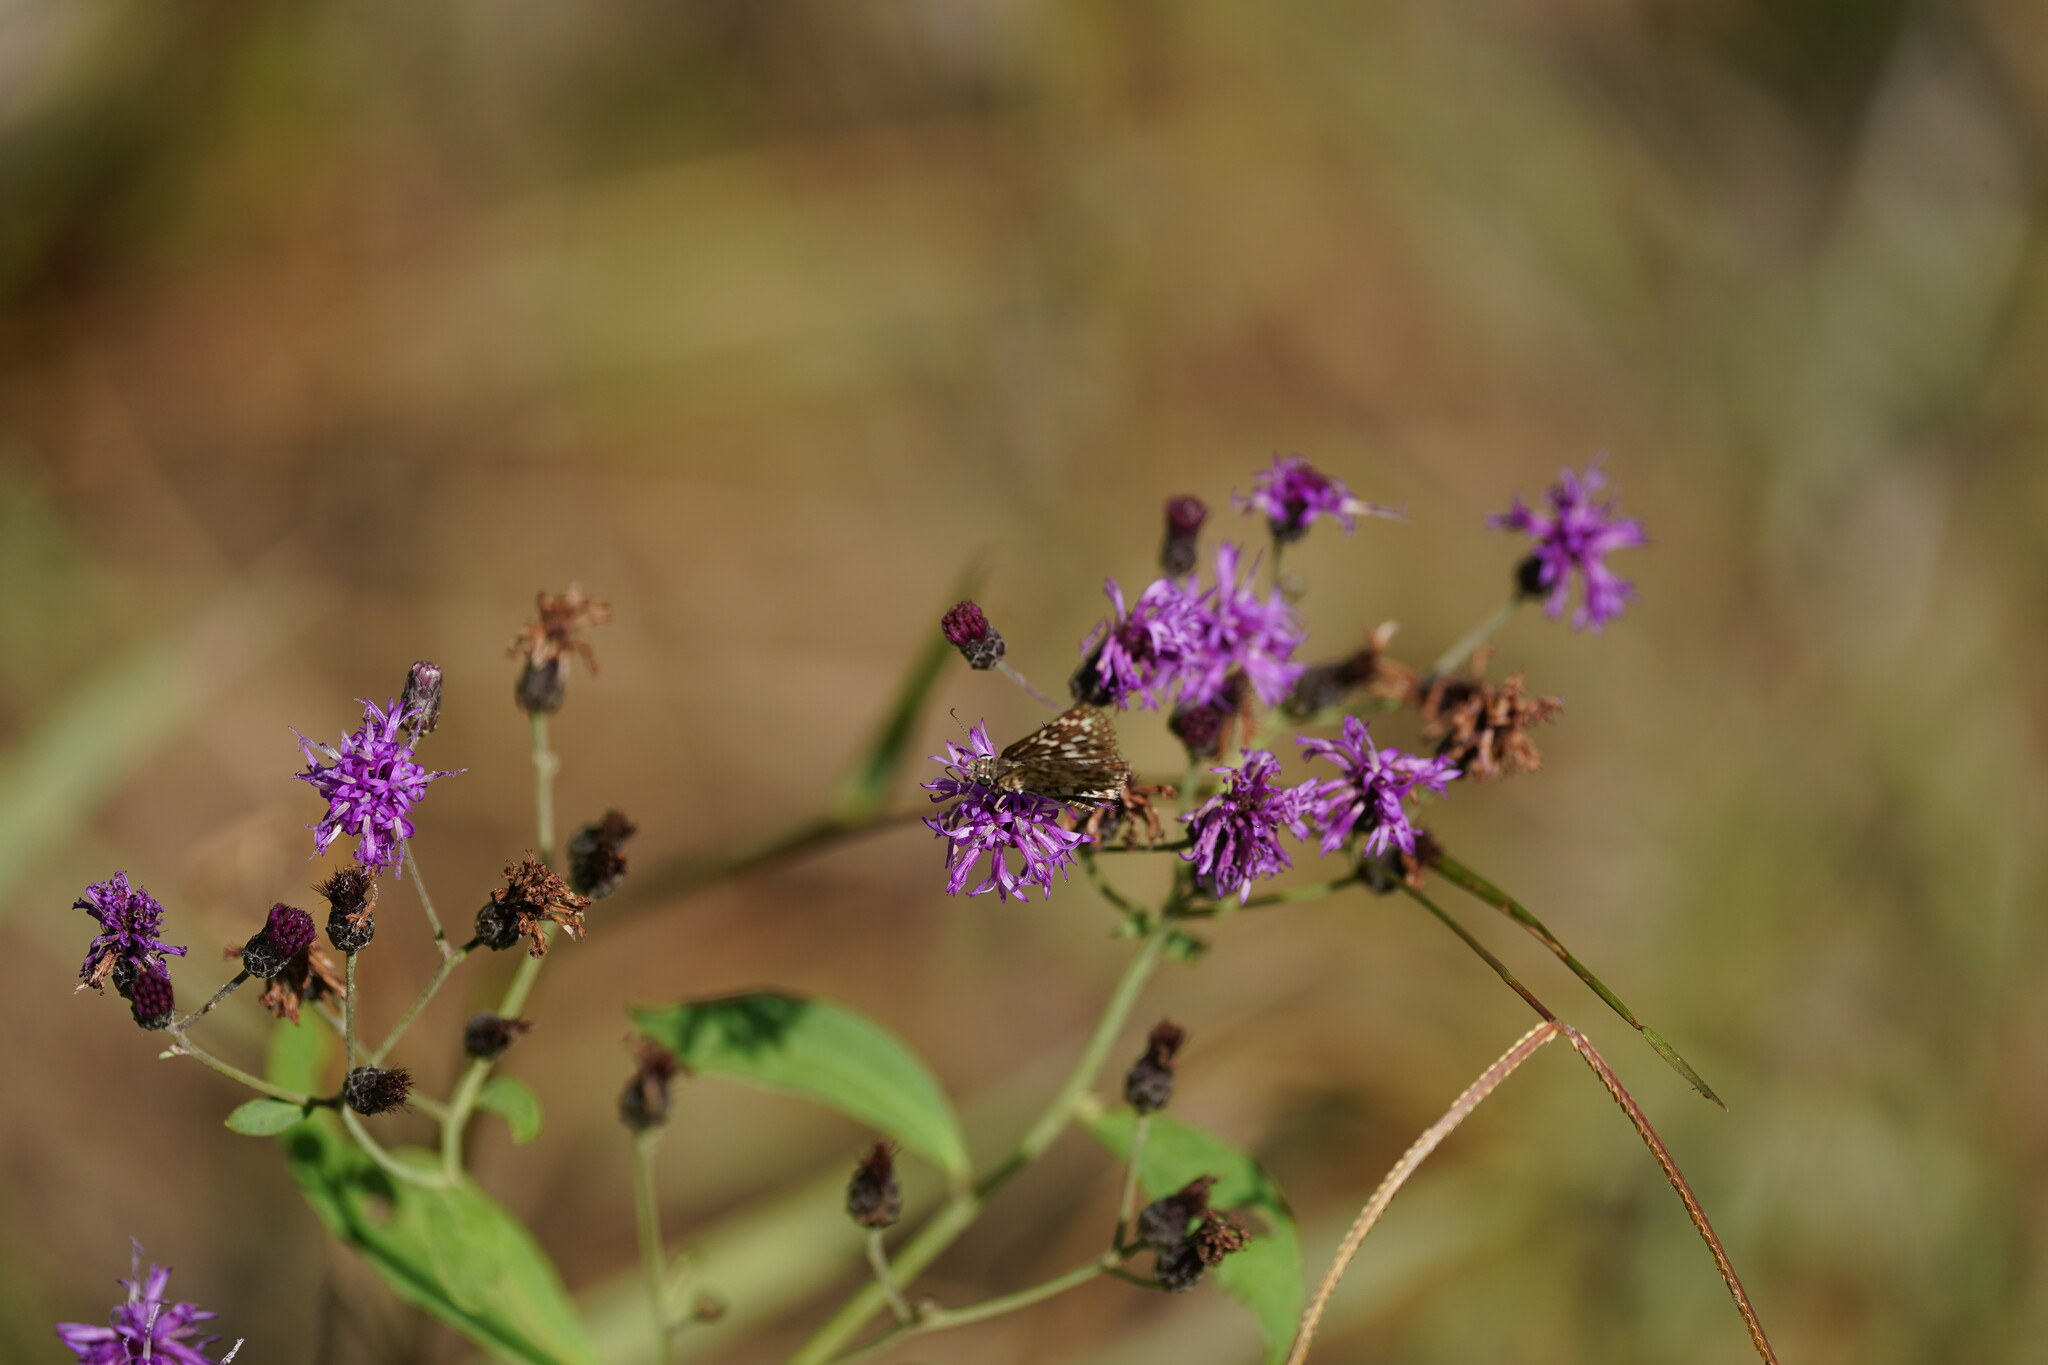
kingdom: Animalia
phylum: Arthropoda
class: Insecta
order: Lepidoptera
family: Hesperiidae
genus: Pyrgus
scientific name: Pyrgus oileus
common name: Tropical checkered-skipper
